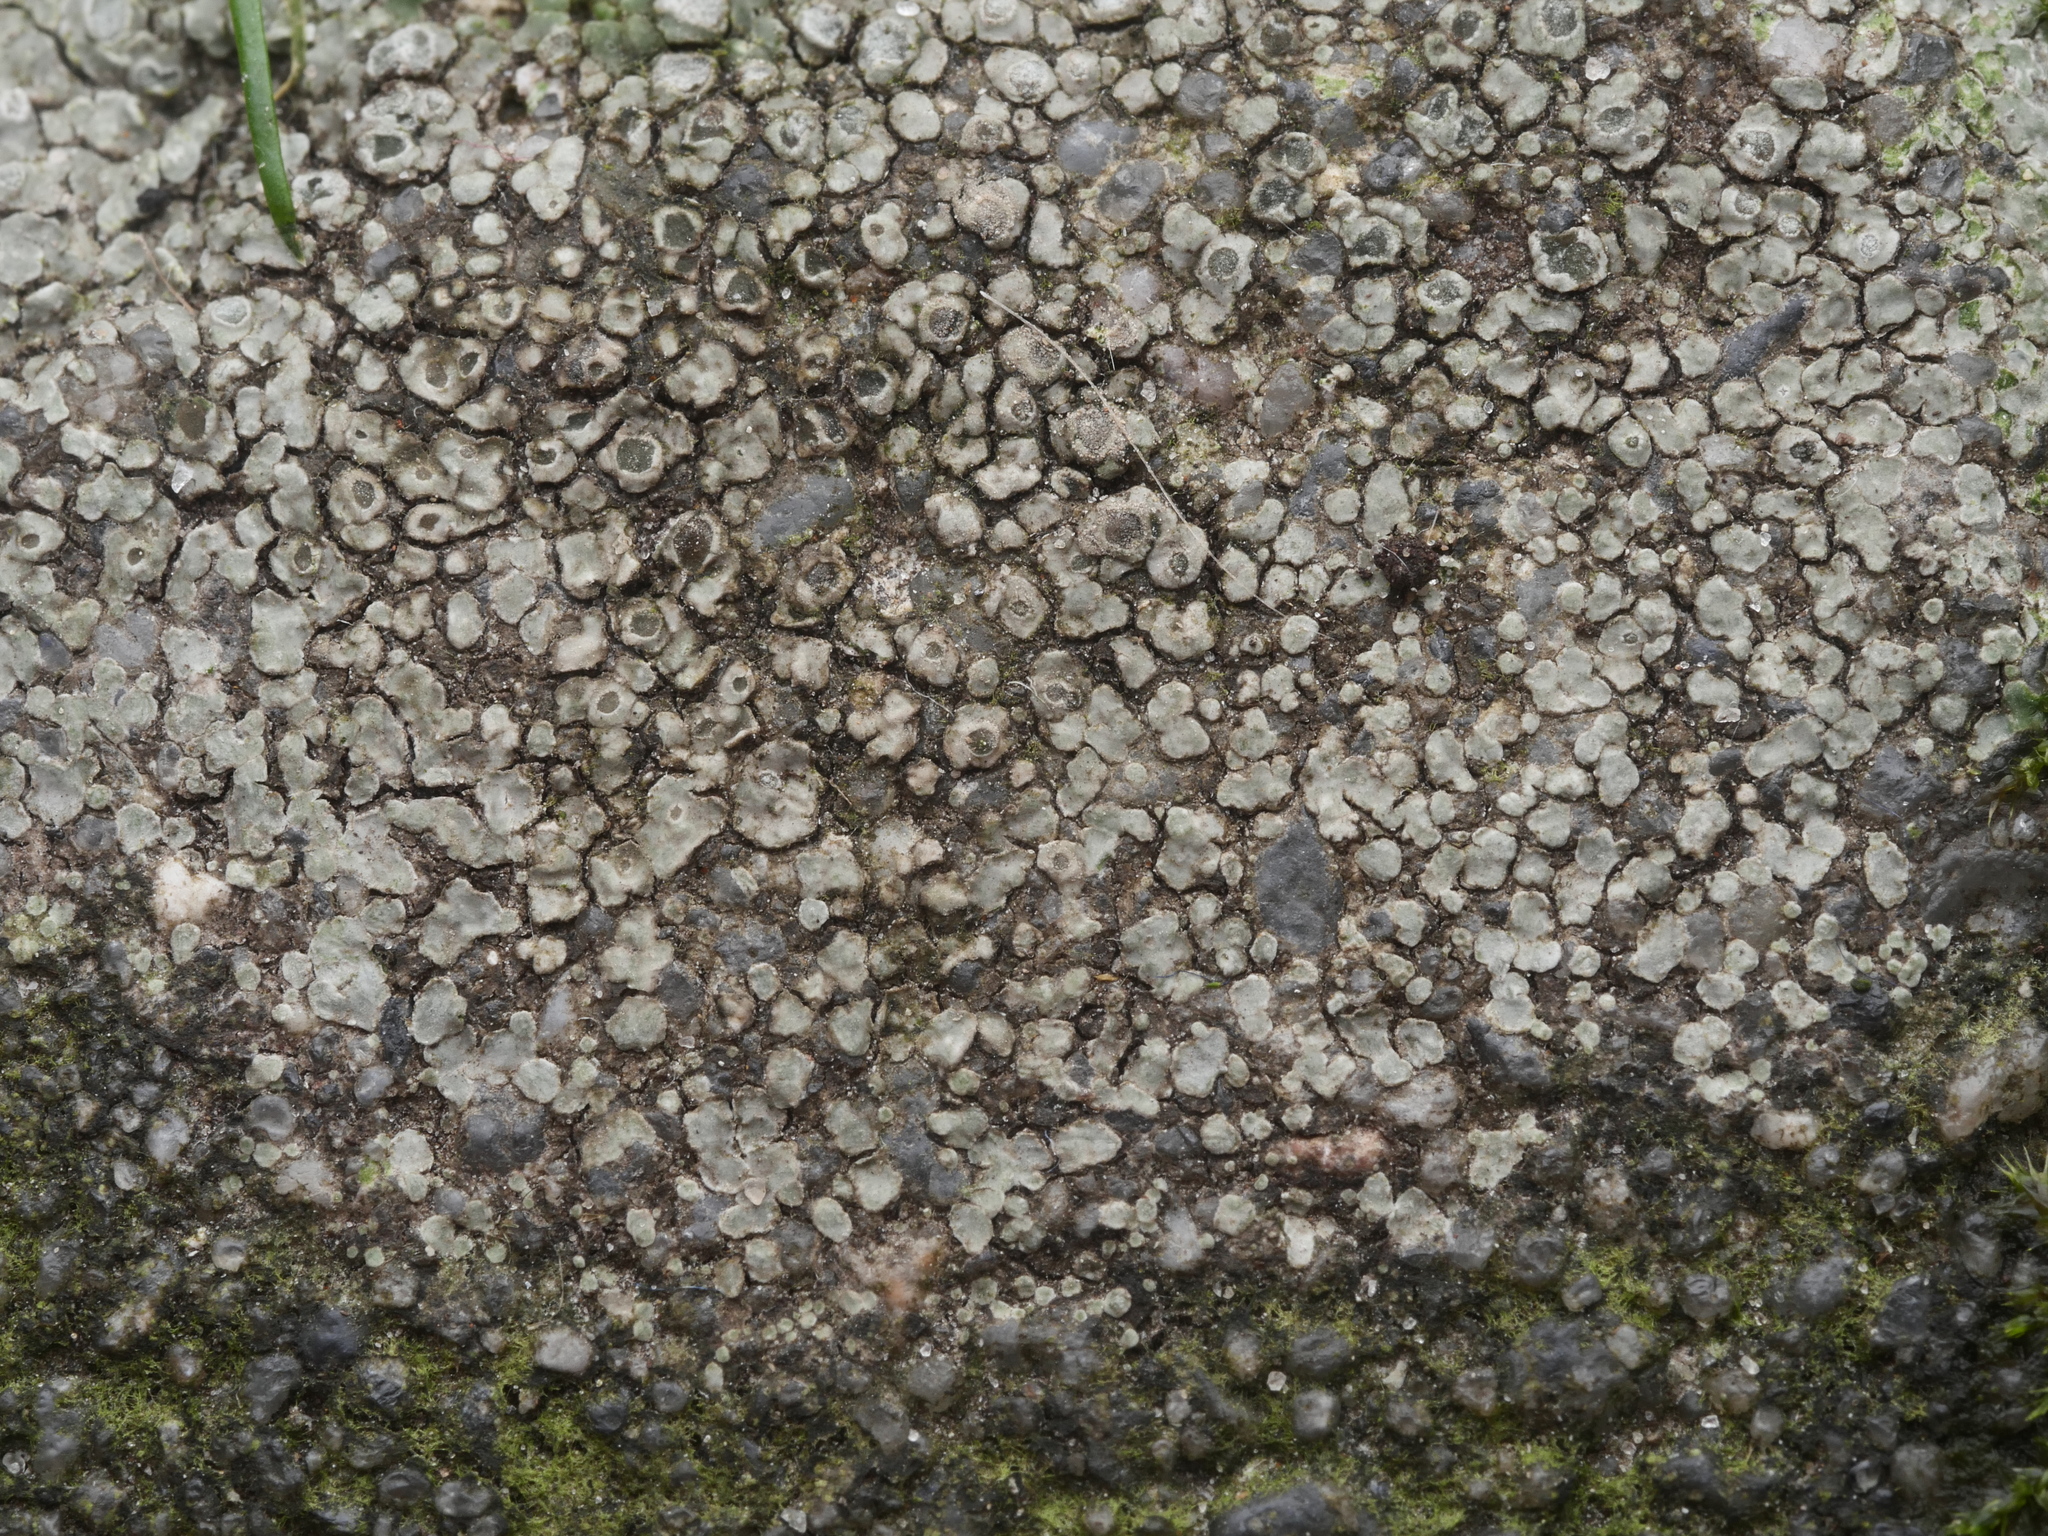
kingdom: Fungi
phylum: Ascomycota
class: Lecanoromycetes
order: Pertusariales
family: Megasporaceae
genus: Circinaria
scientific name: Circinaria contorta
